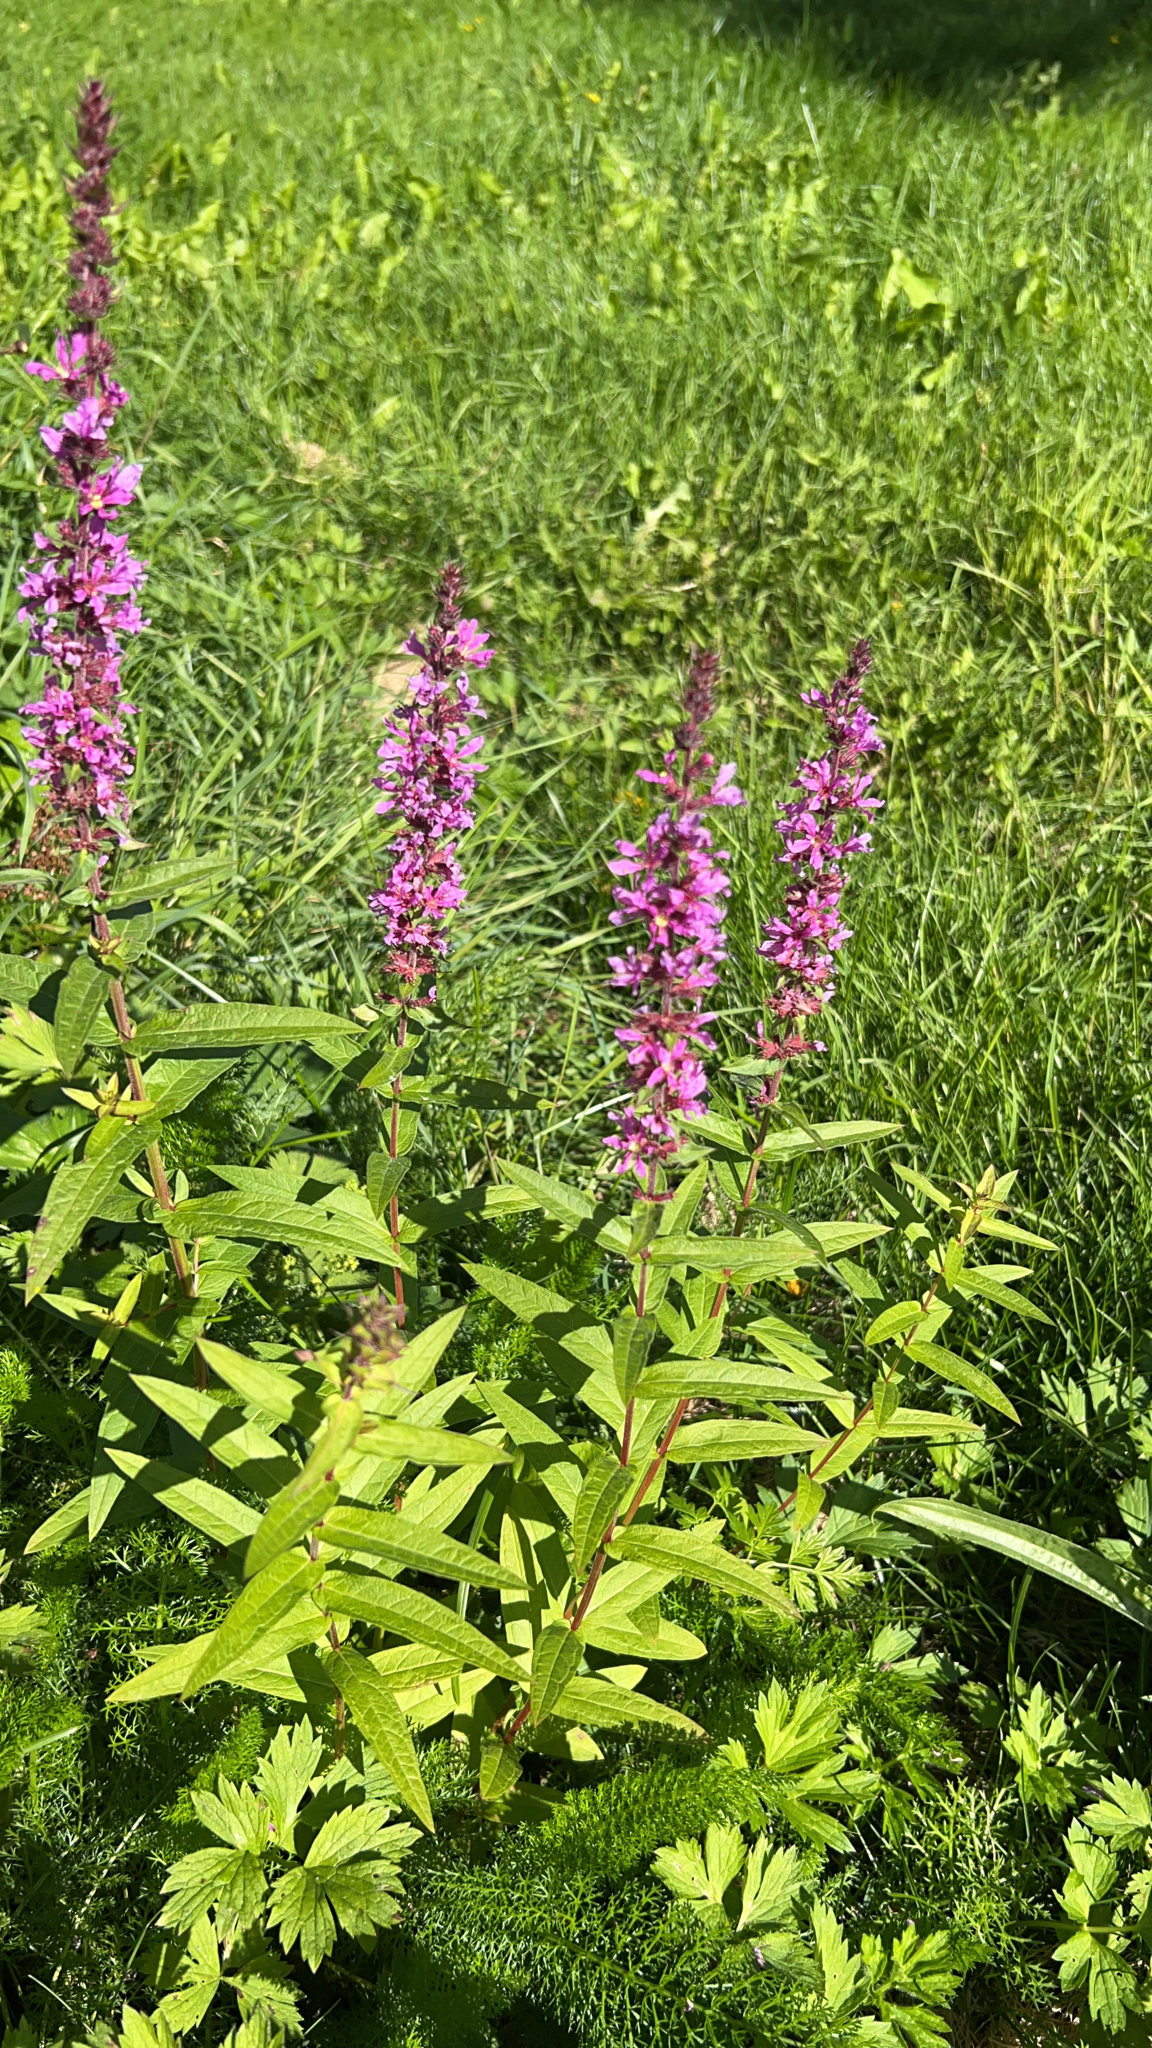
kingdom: Plantae
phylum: Tracheophyta
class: Magnoliopsida
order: Myrtales
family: Lythraceae
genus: Lythrum
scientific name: Lythrum salicaria
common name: Purple loosestrife
